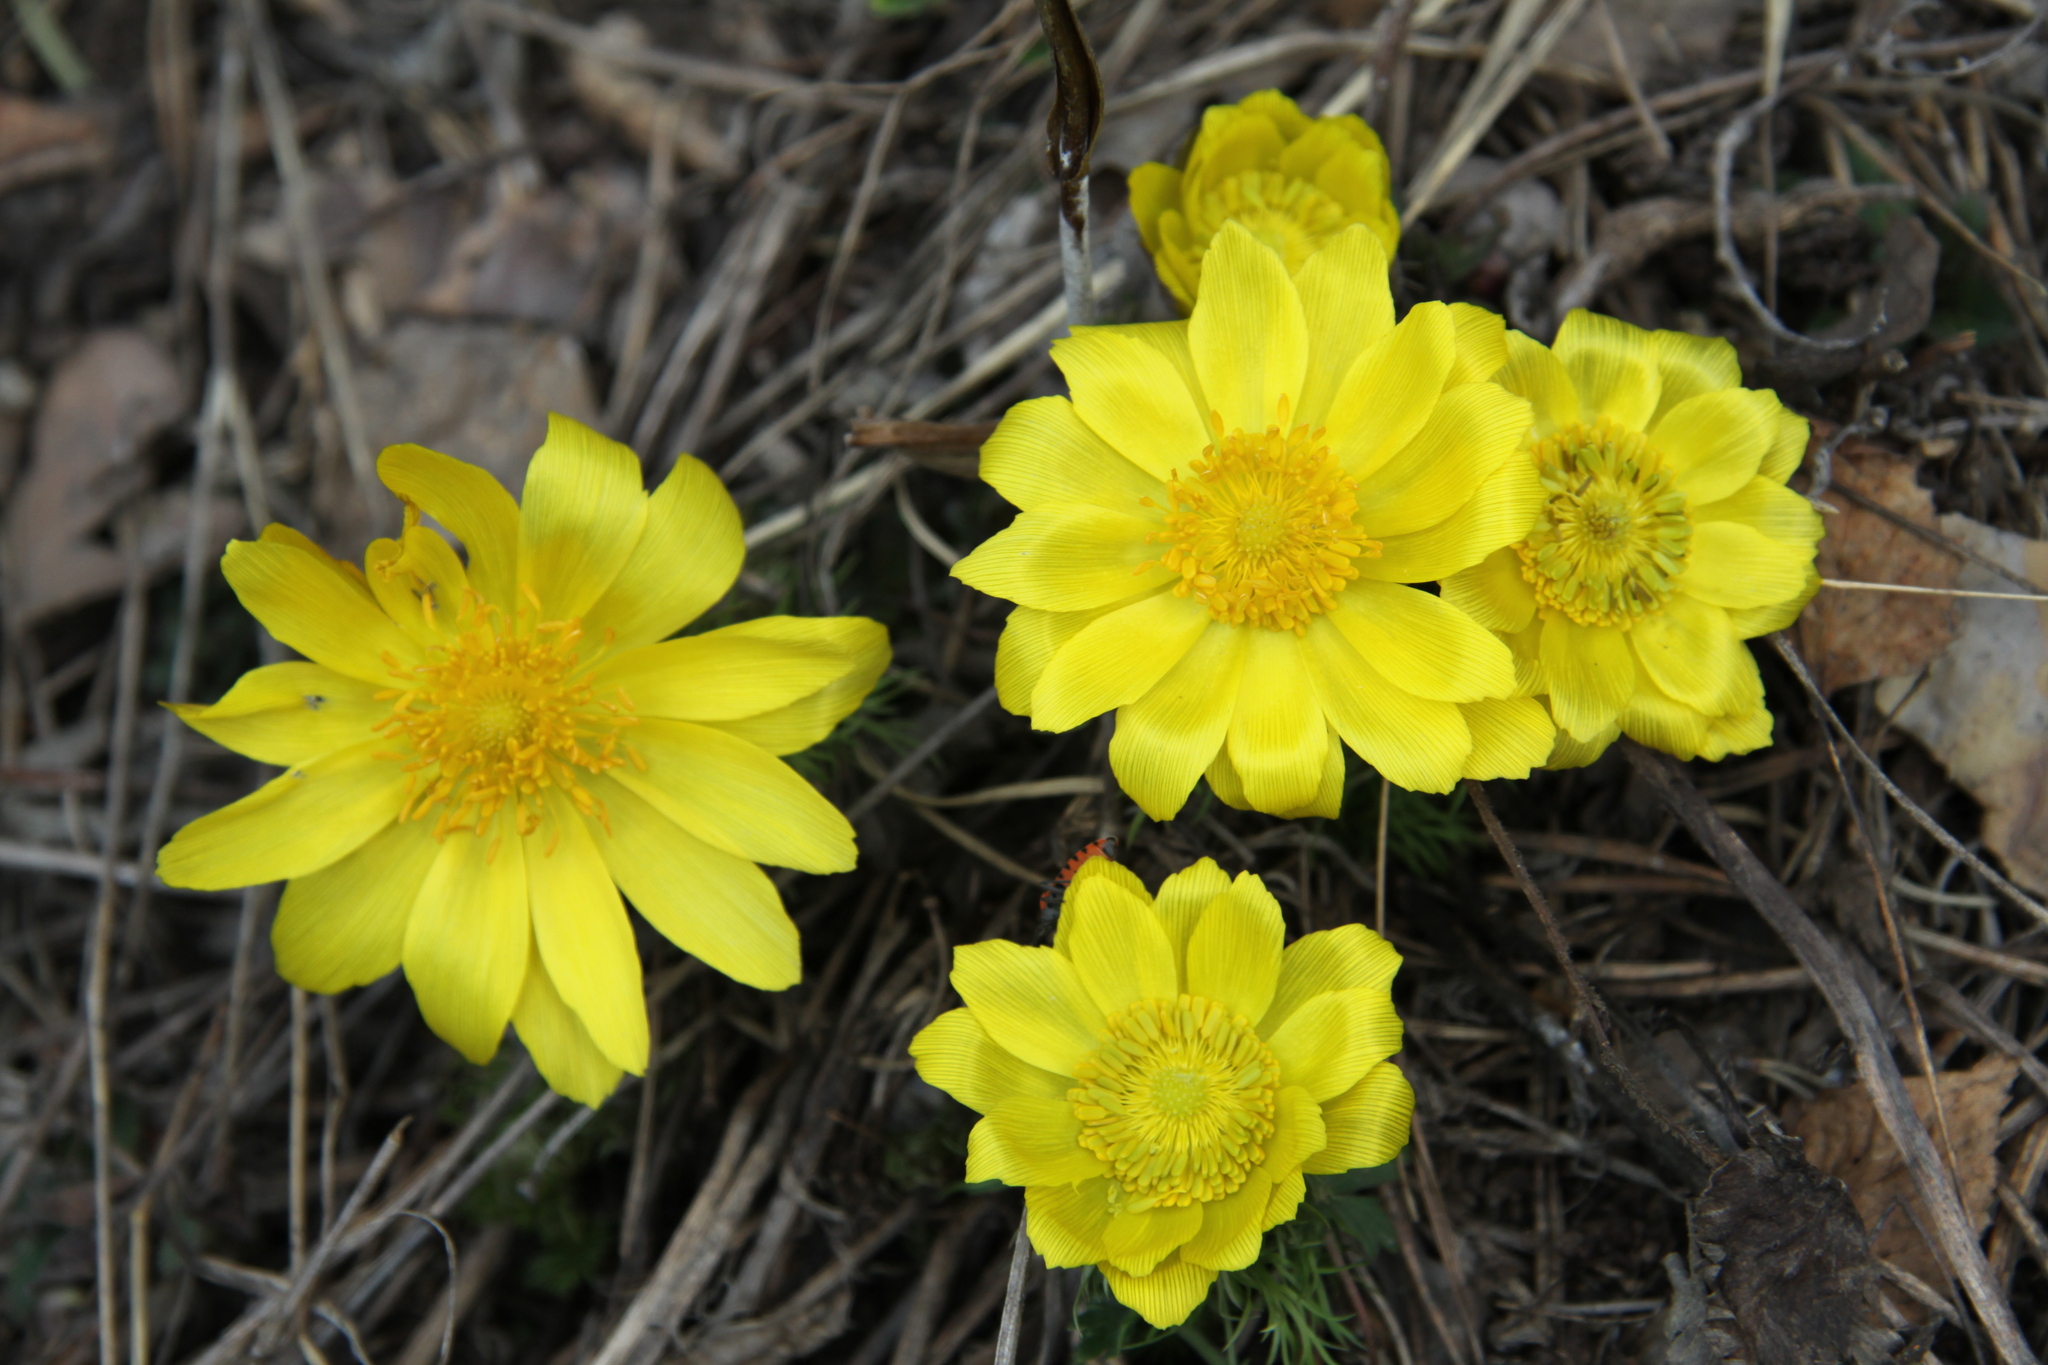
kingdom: Plantae
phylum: Tracheophyta
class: Magnoliopsida
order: Ranunculales
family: Ranunculaceae
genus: Adonis
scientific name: Adonis vernalis
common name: Yellow pheasants-eye
